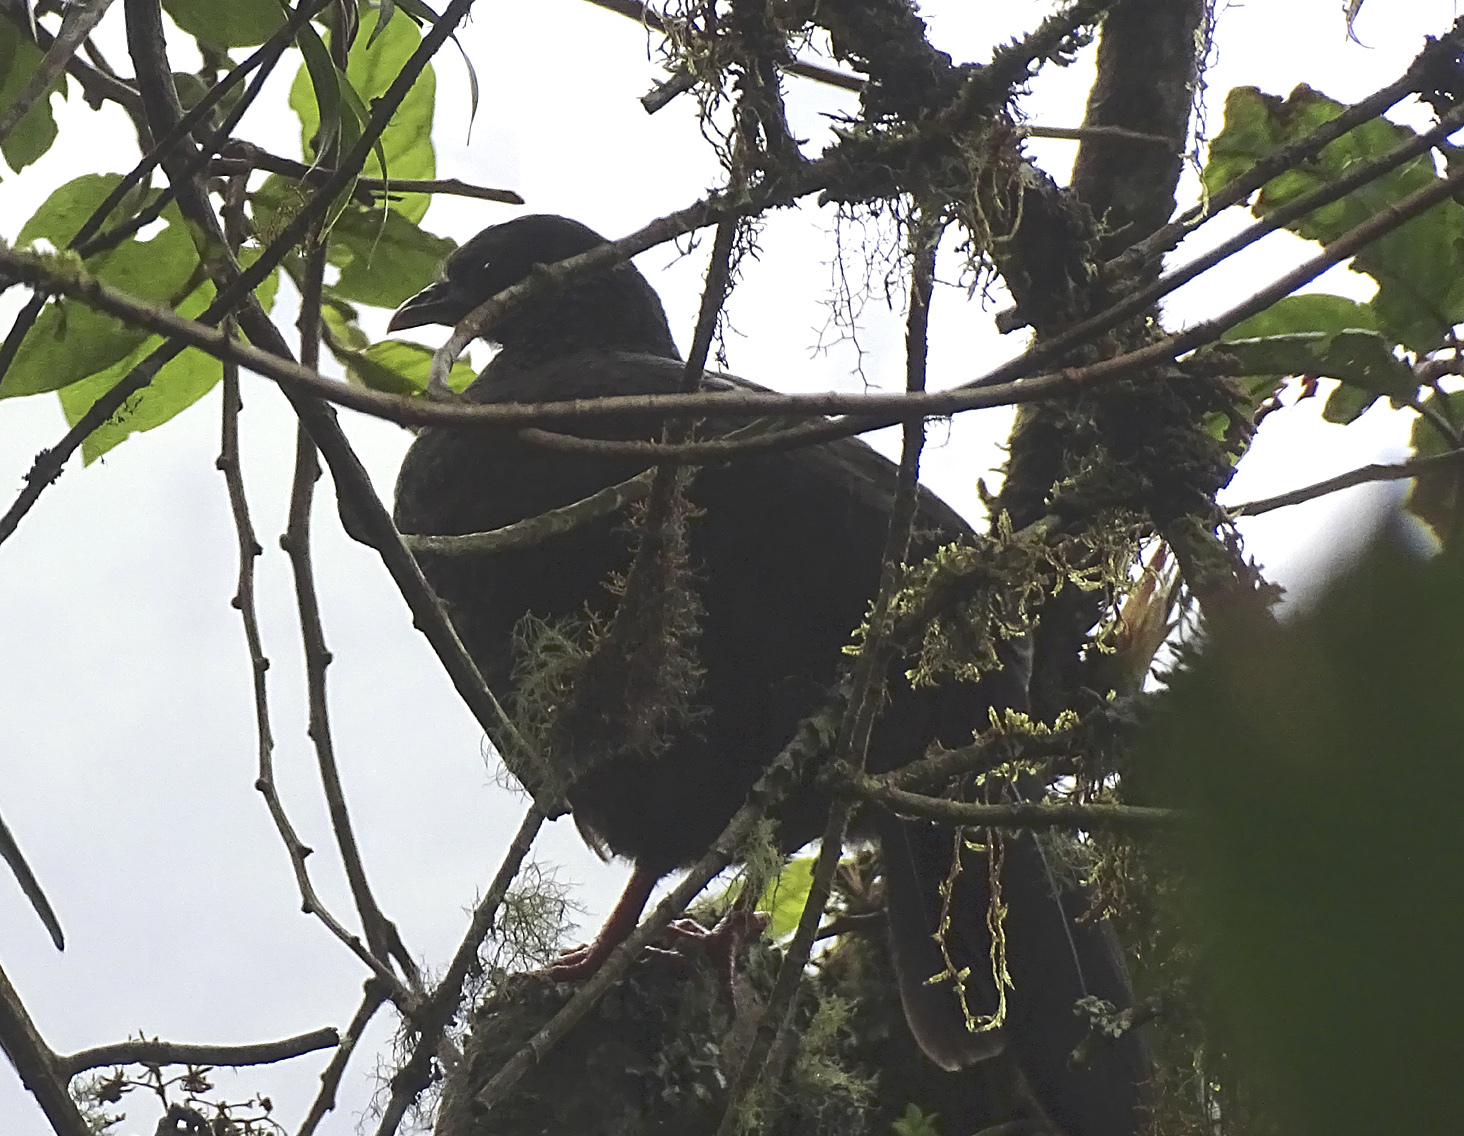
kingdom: Animalia
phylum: Chordata
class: Aves
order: Galliformes
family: Cracidae
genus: Penelope
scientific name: Penelope montagnii
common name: Andean guan
